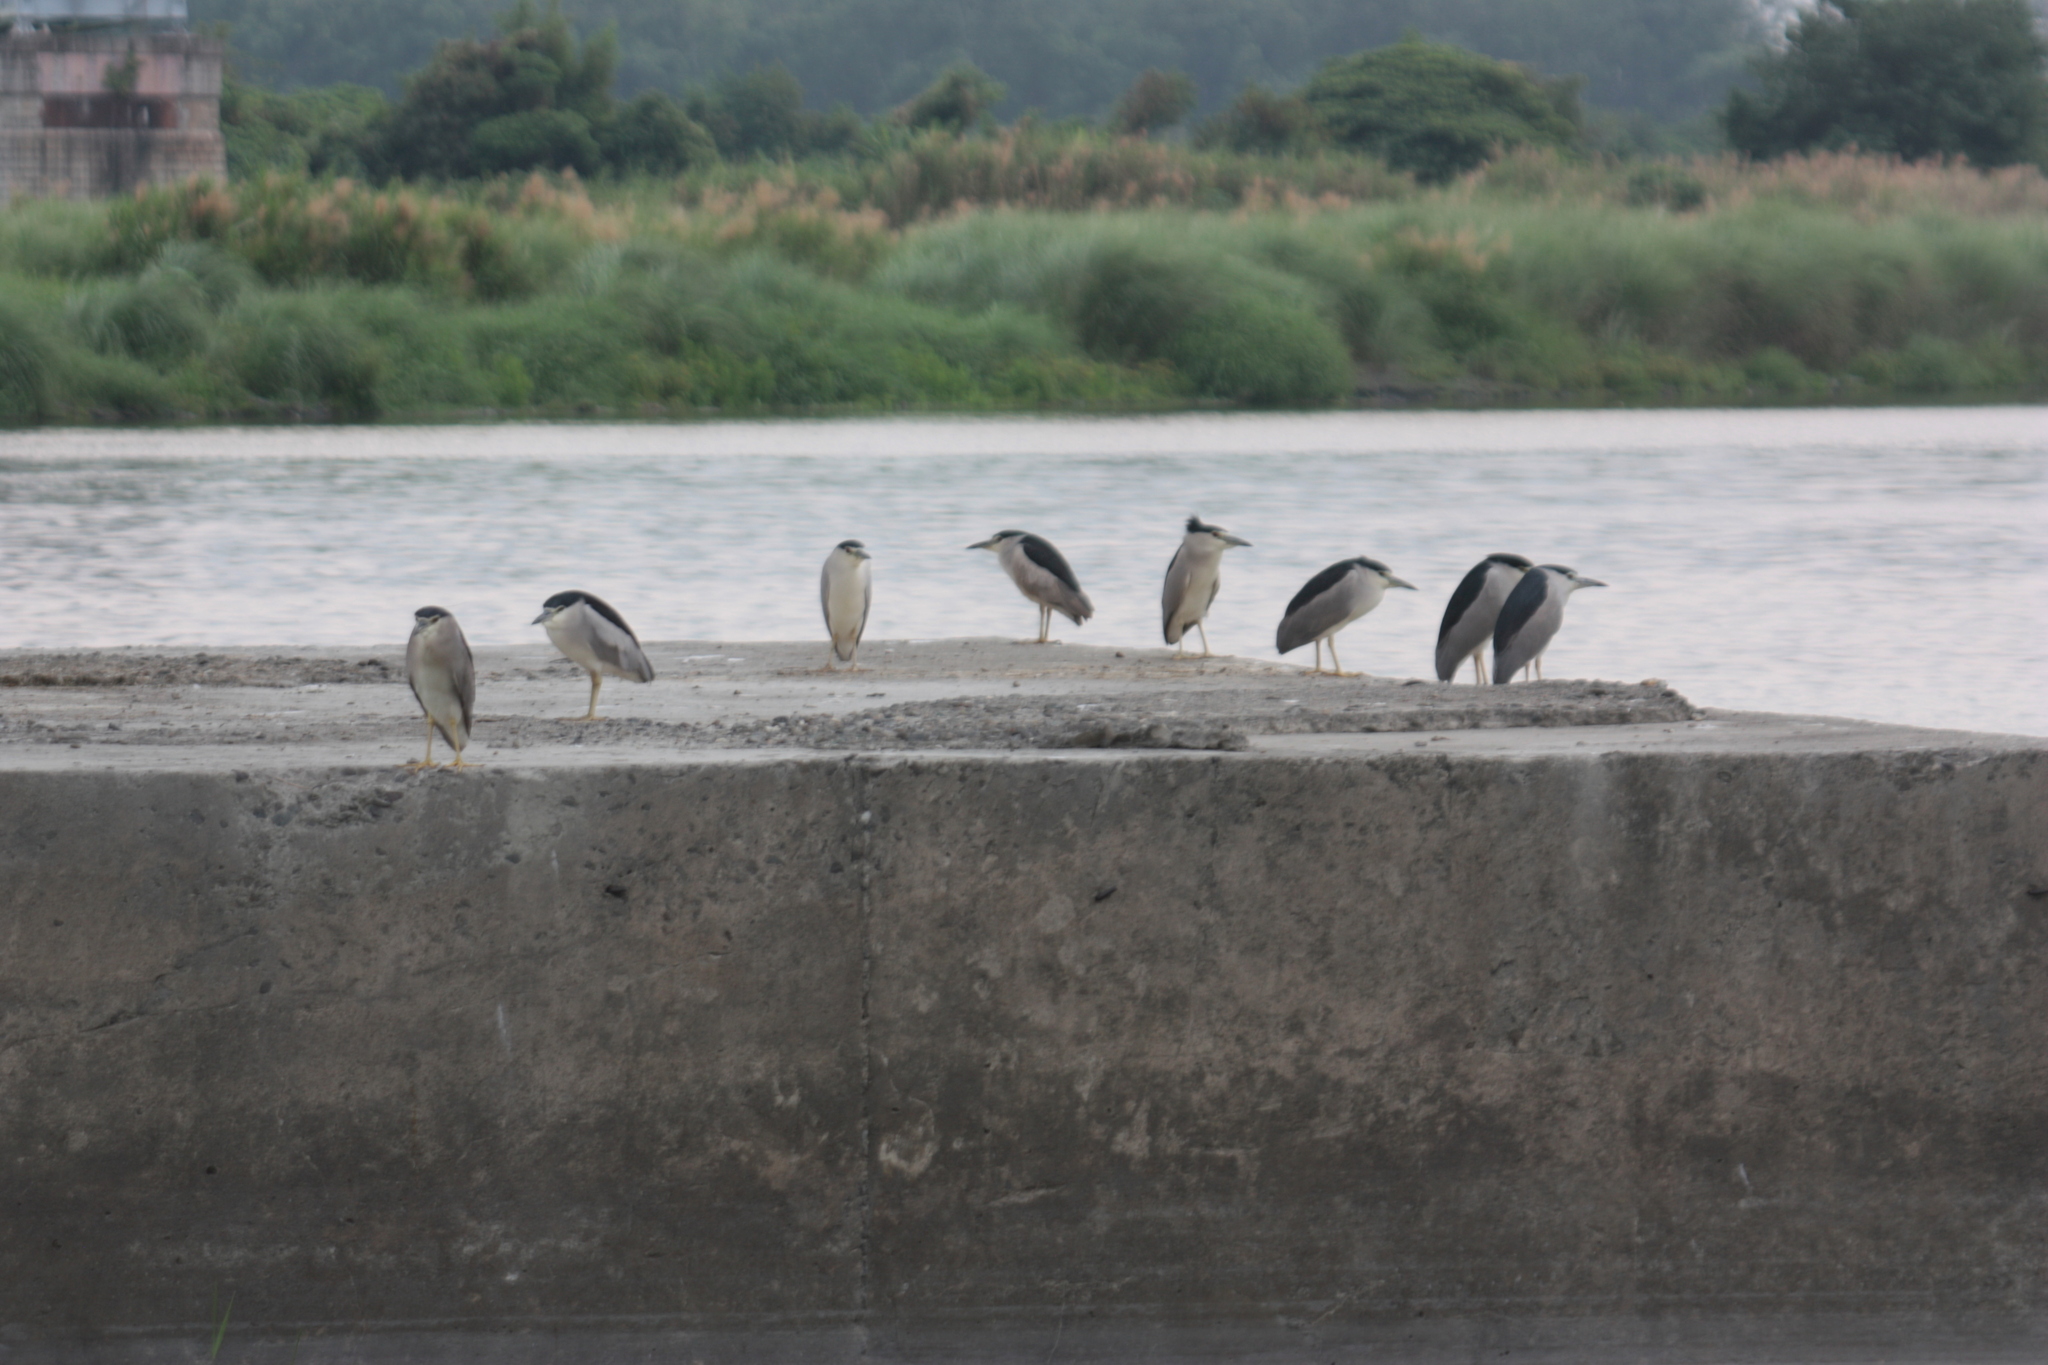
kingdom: Animalia
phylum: Chordata
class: Aves
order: Pelecaniformes
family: Ardeidae
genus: Nycticorax
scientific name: Nycticorax nycticorax
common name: Black-crowned night heron
